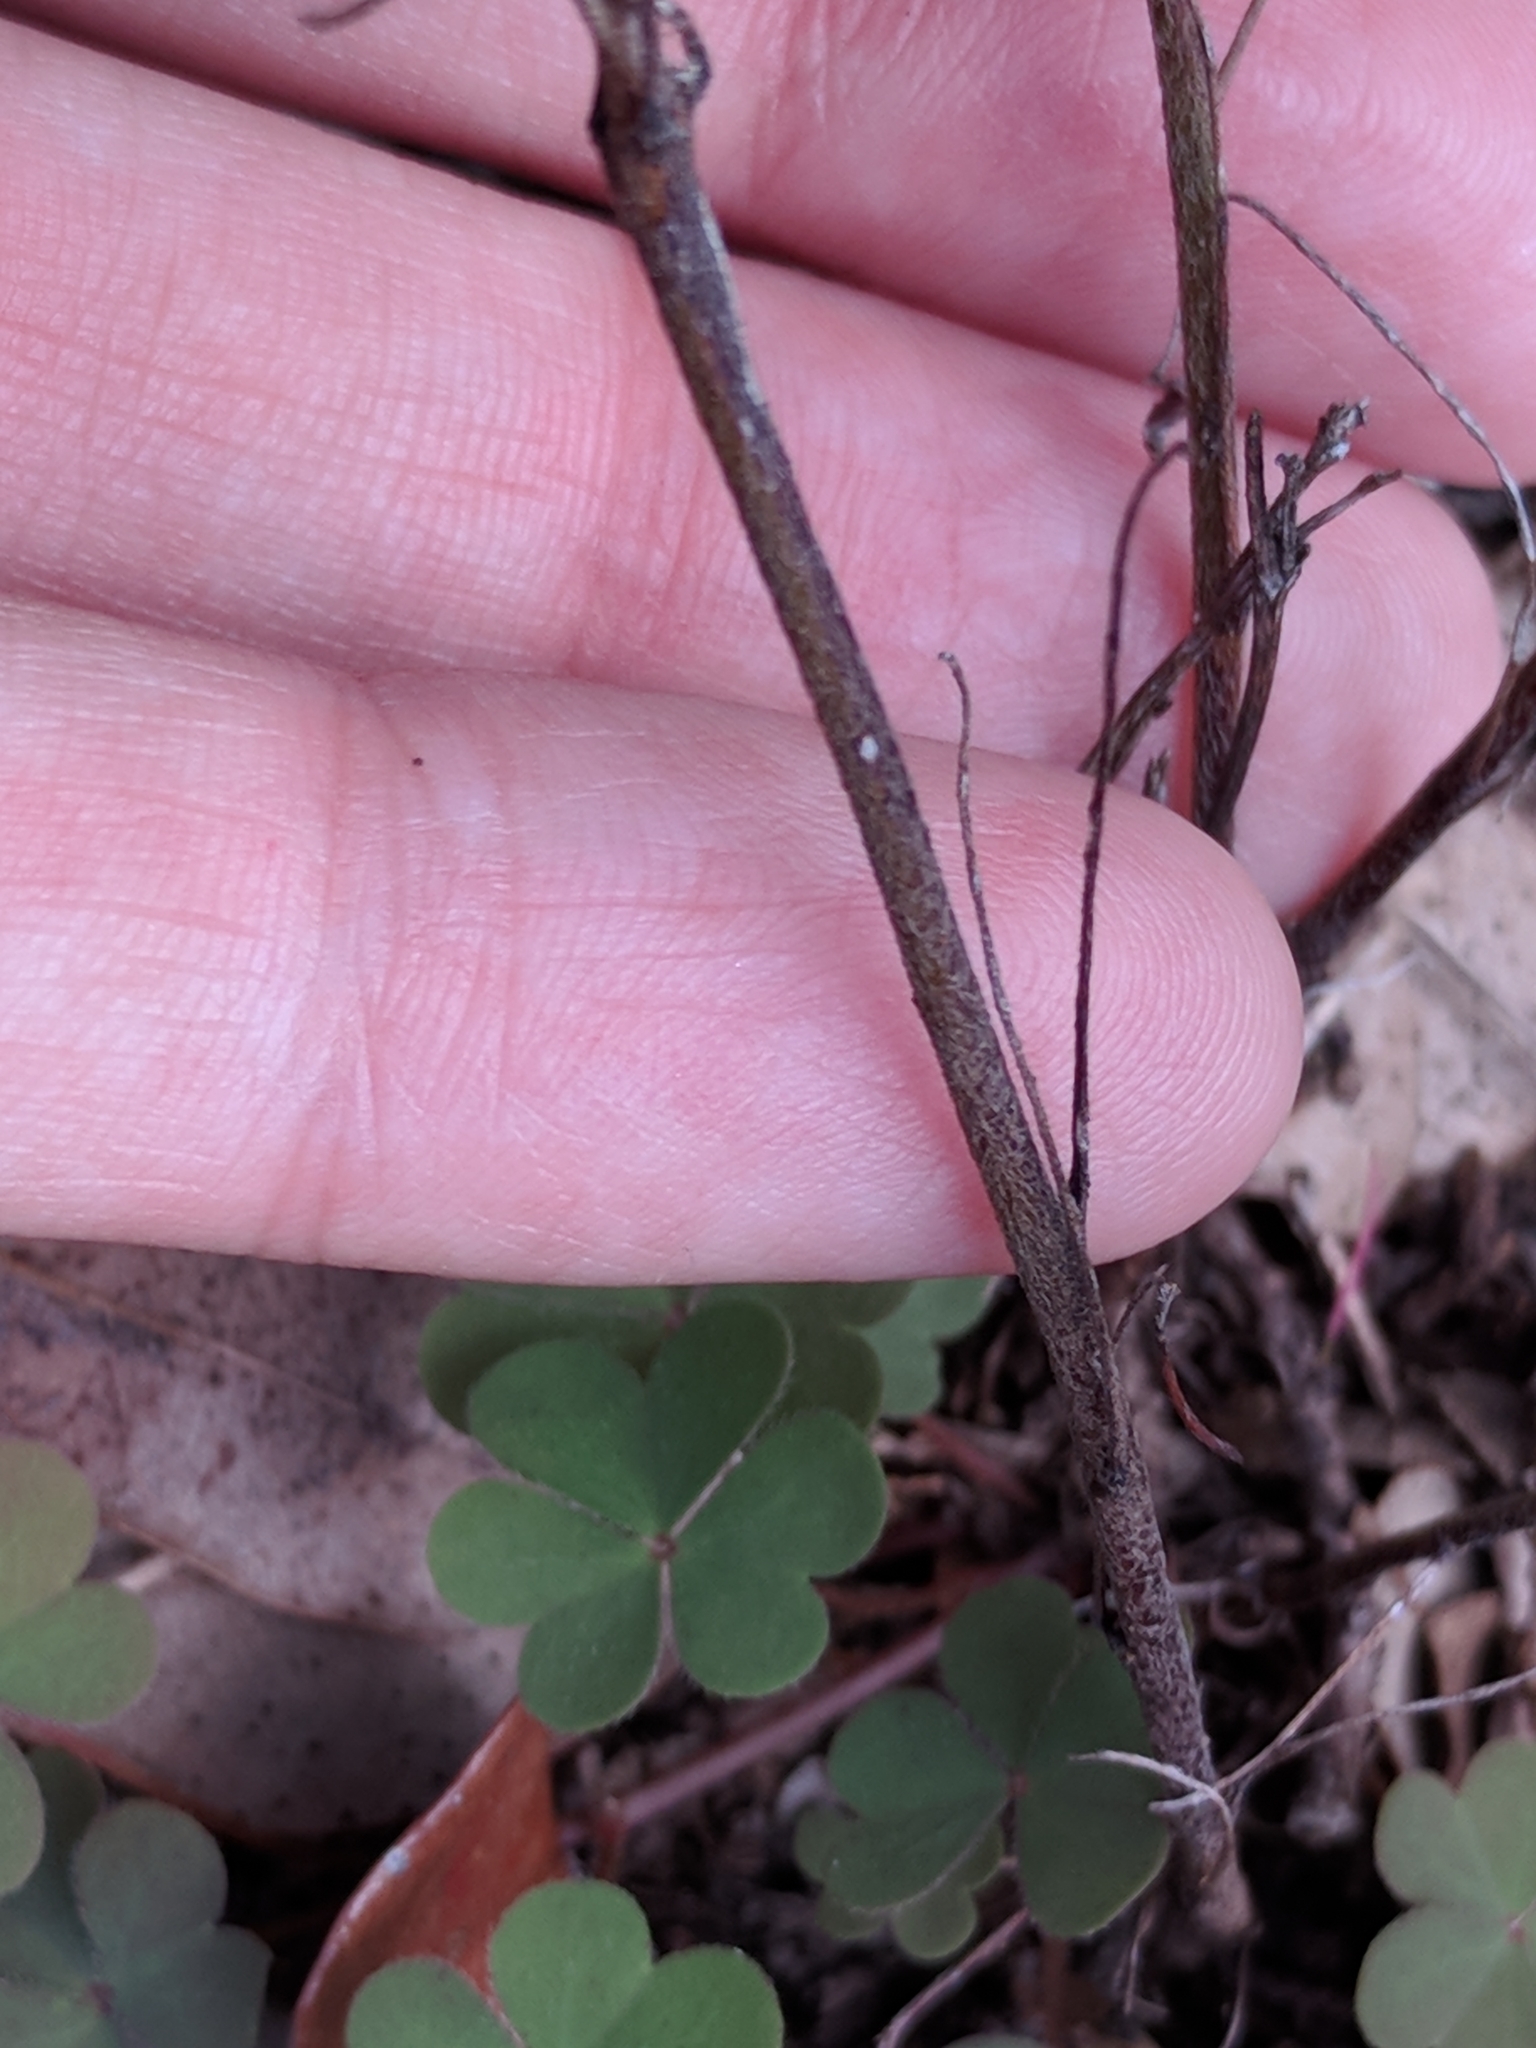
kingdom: Plantae
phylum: Tracheophyta
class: Magnoliopsida
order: Oxalidales
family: Oxalidaceae
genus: Oxalis
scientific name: Oxalis dillenii
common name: Sussex yellow-sorrel
